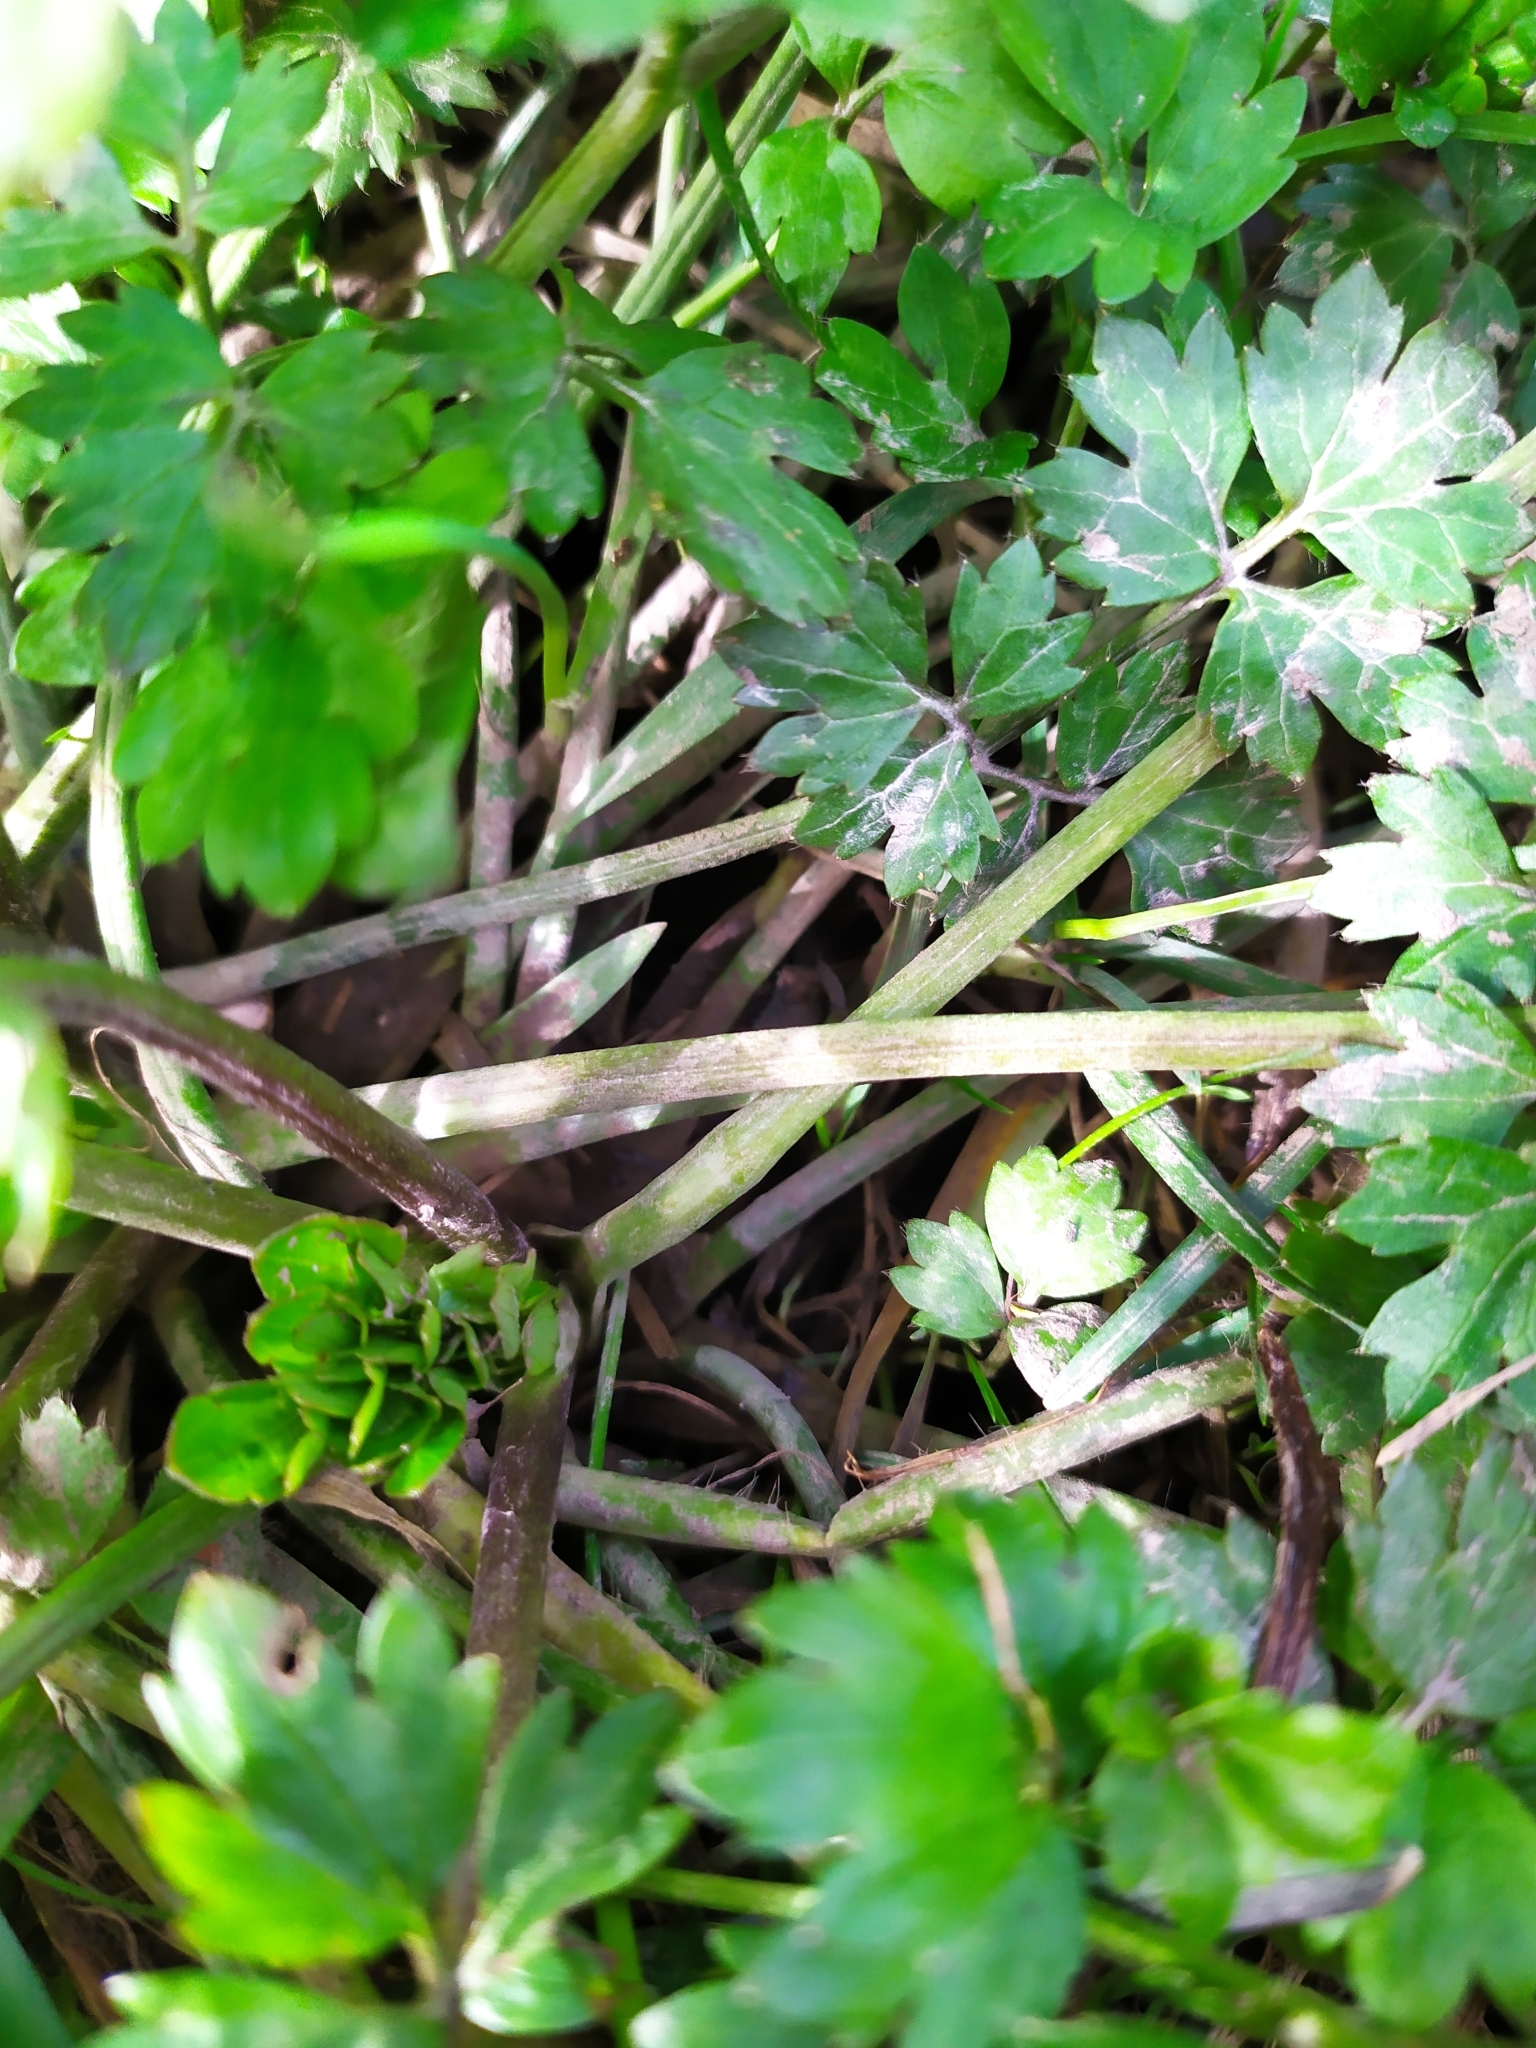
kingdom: Plantae
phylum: Tracheophyta
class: Magnoliopsida
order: Ranunculales
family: Ranunculaceae
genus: Ranunculus
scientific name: Ranunculus repens
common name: Creeping buttercup
